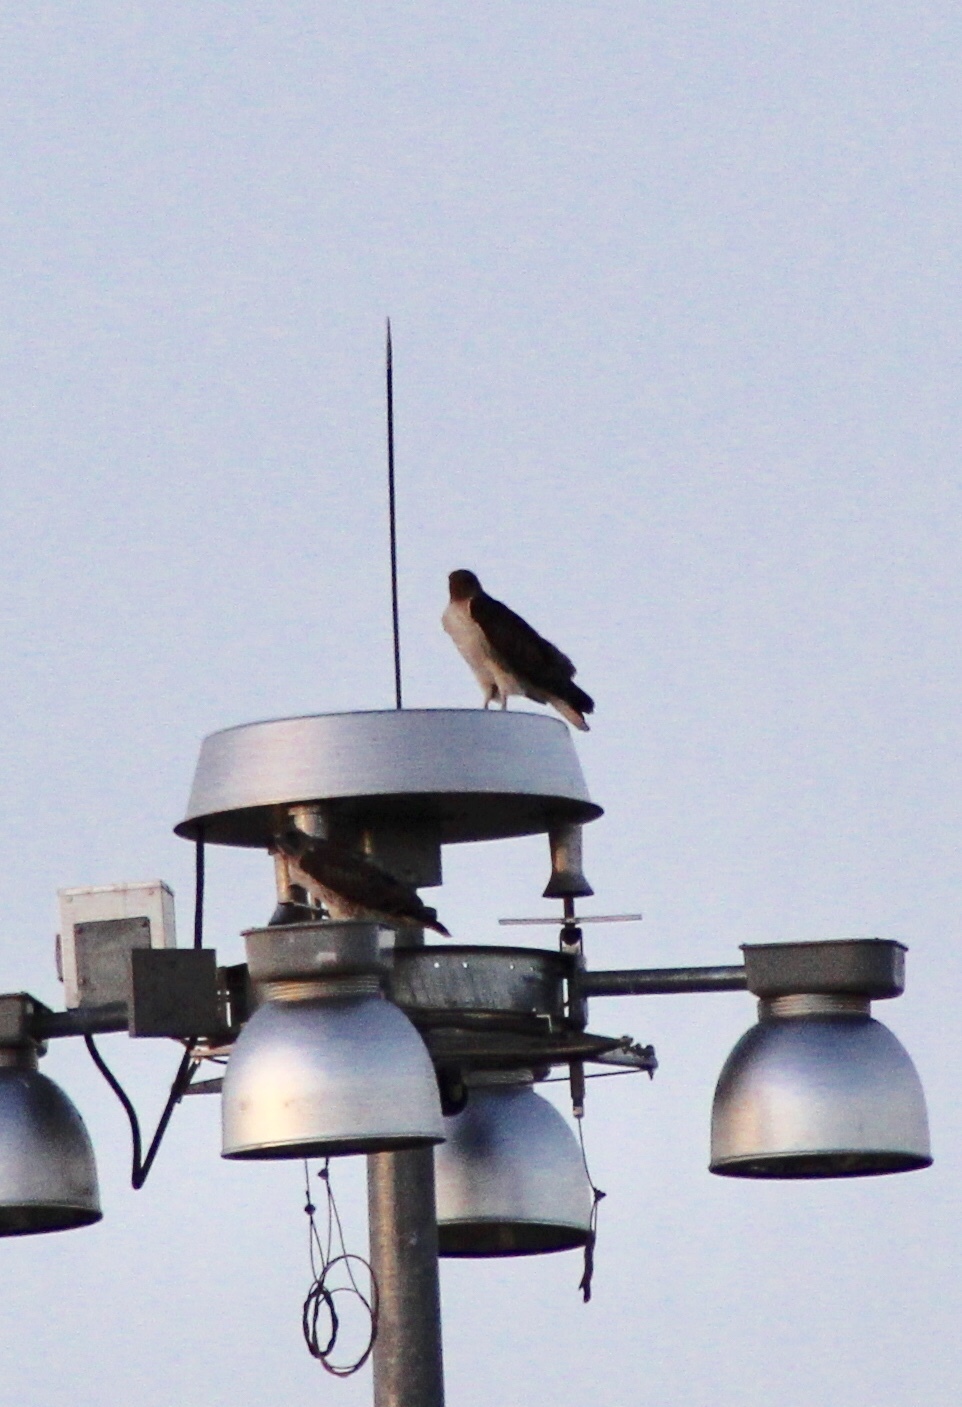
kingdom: Animalia
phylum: Chordata
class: Aves
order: Accipitriformes
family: Accipitridae
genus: Buteo
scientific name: Buteo jamaicensis
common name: Red-tailed hawk
